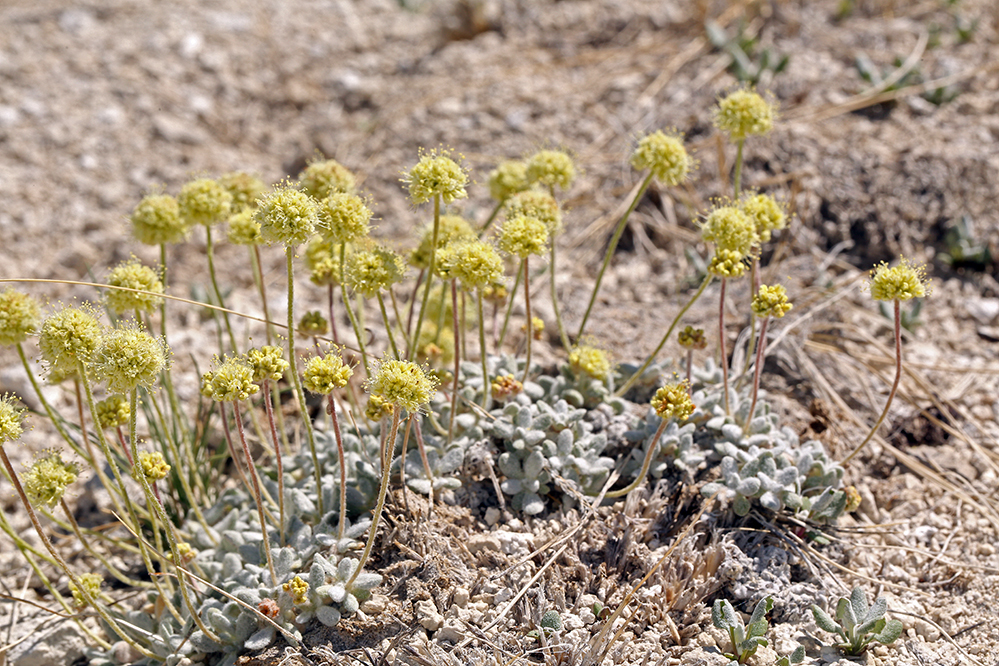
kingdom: Plantae
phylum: Tracheophyta
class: Magnoliopsida
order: Caryophyllales
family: Polygonaceae
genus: Eriogonum
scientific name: Eriogonum argophyllum
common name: Sulphur hot springs wild buckwheat
